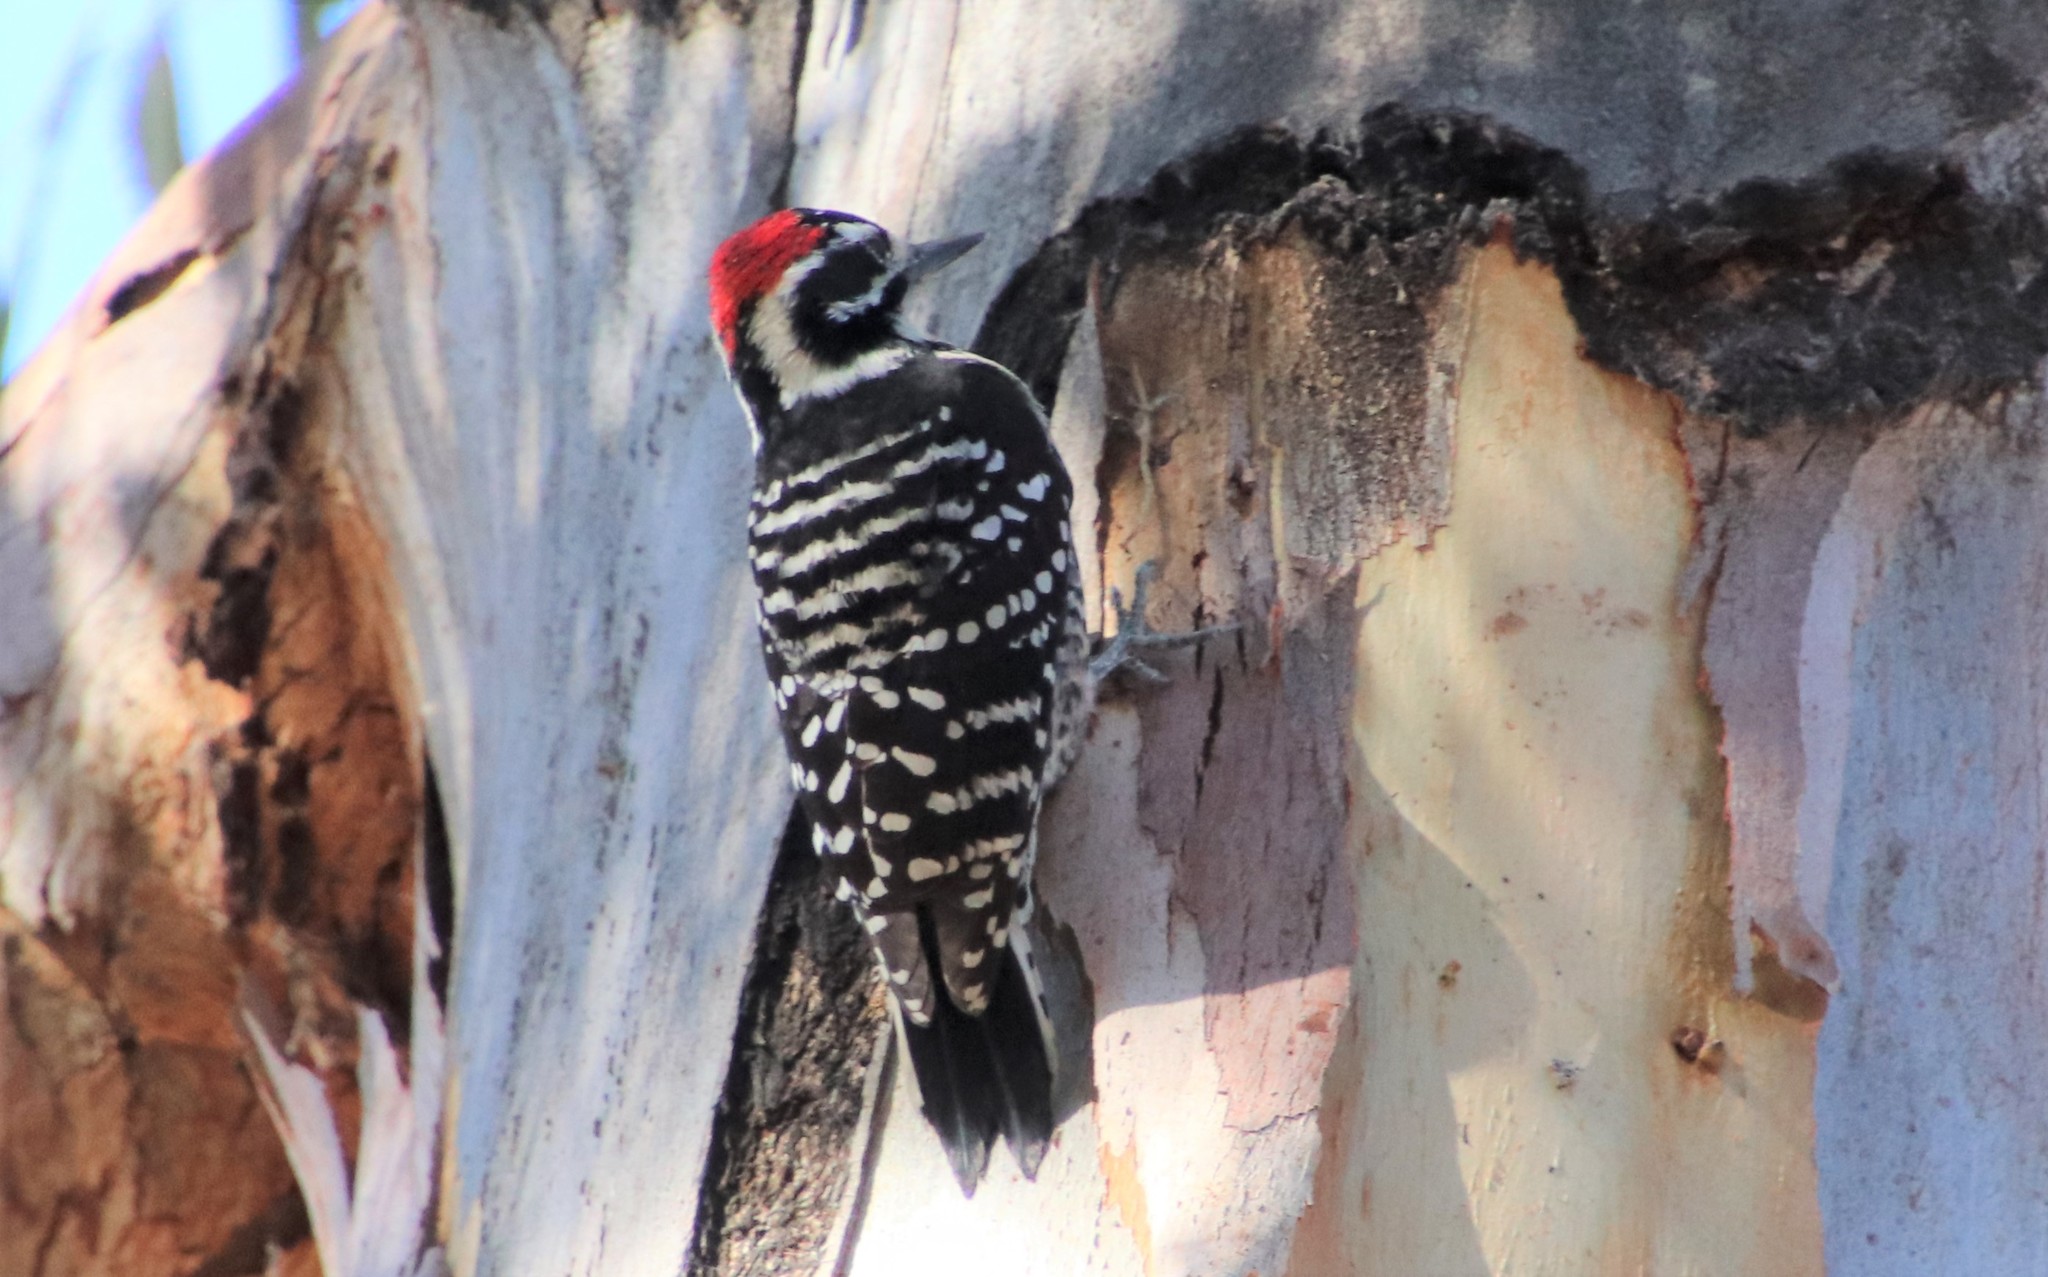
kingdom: Animalia
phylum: Chordata
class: Aves
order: Piciformes
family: Picidae
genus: Dryobates
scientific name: Dryobates nuttallii
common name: Nuttall's woodpecker
